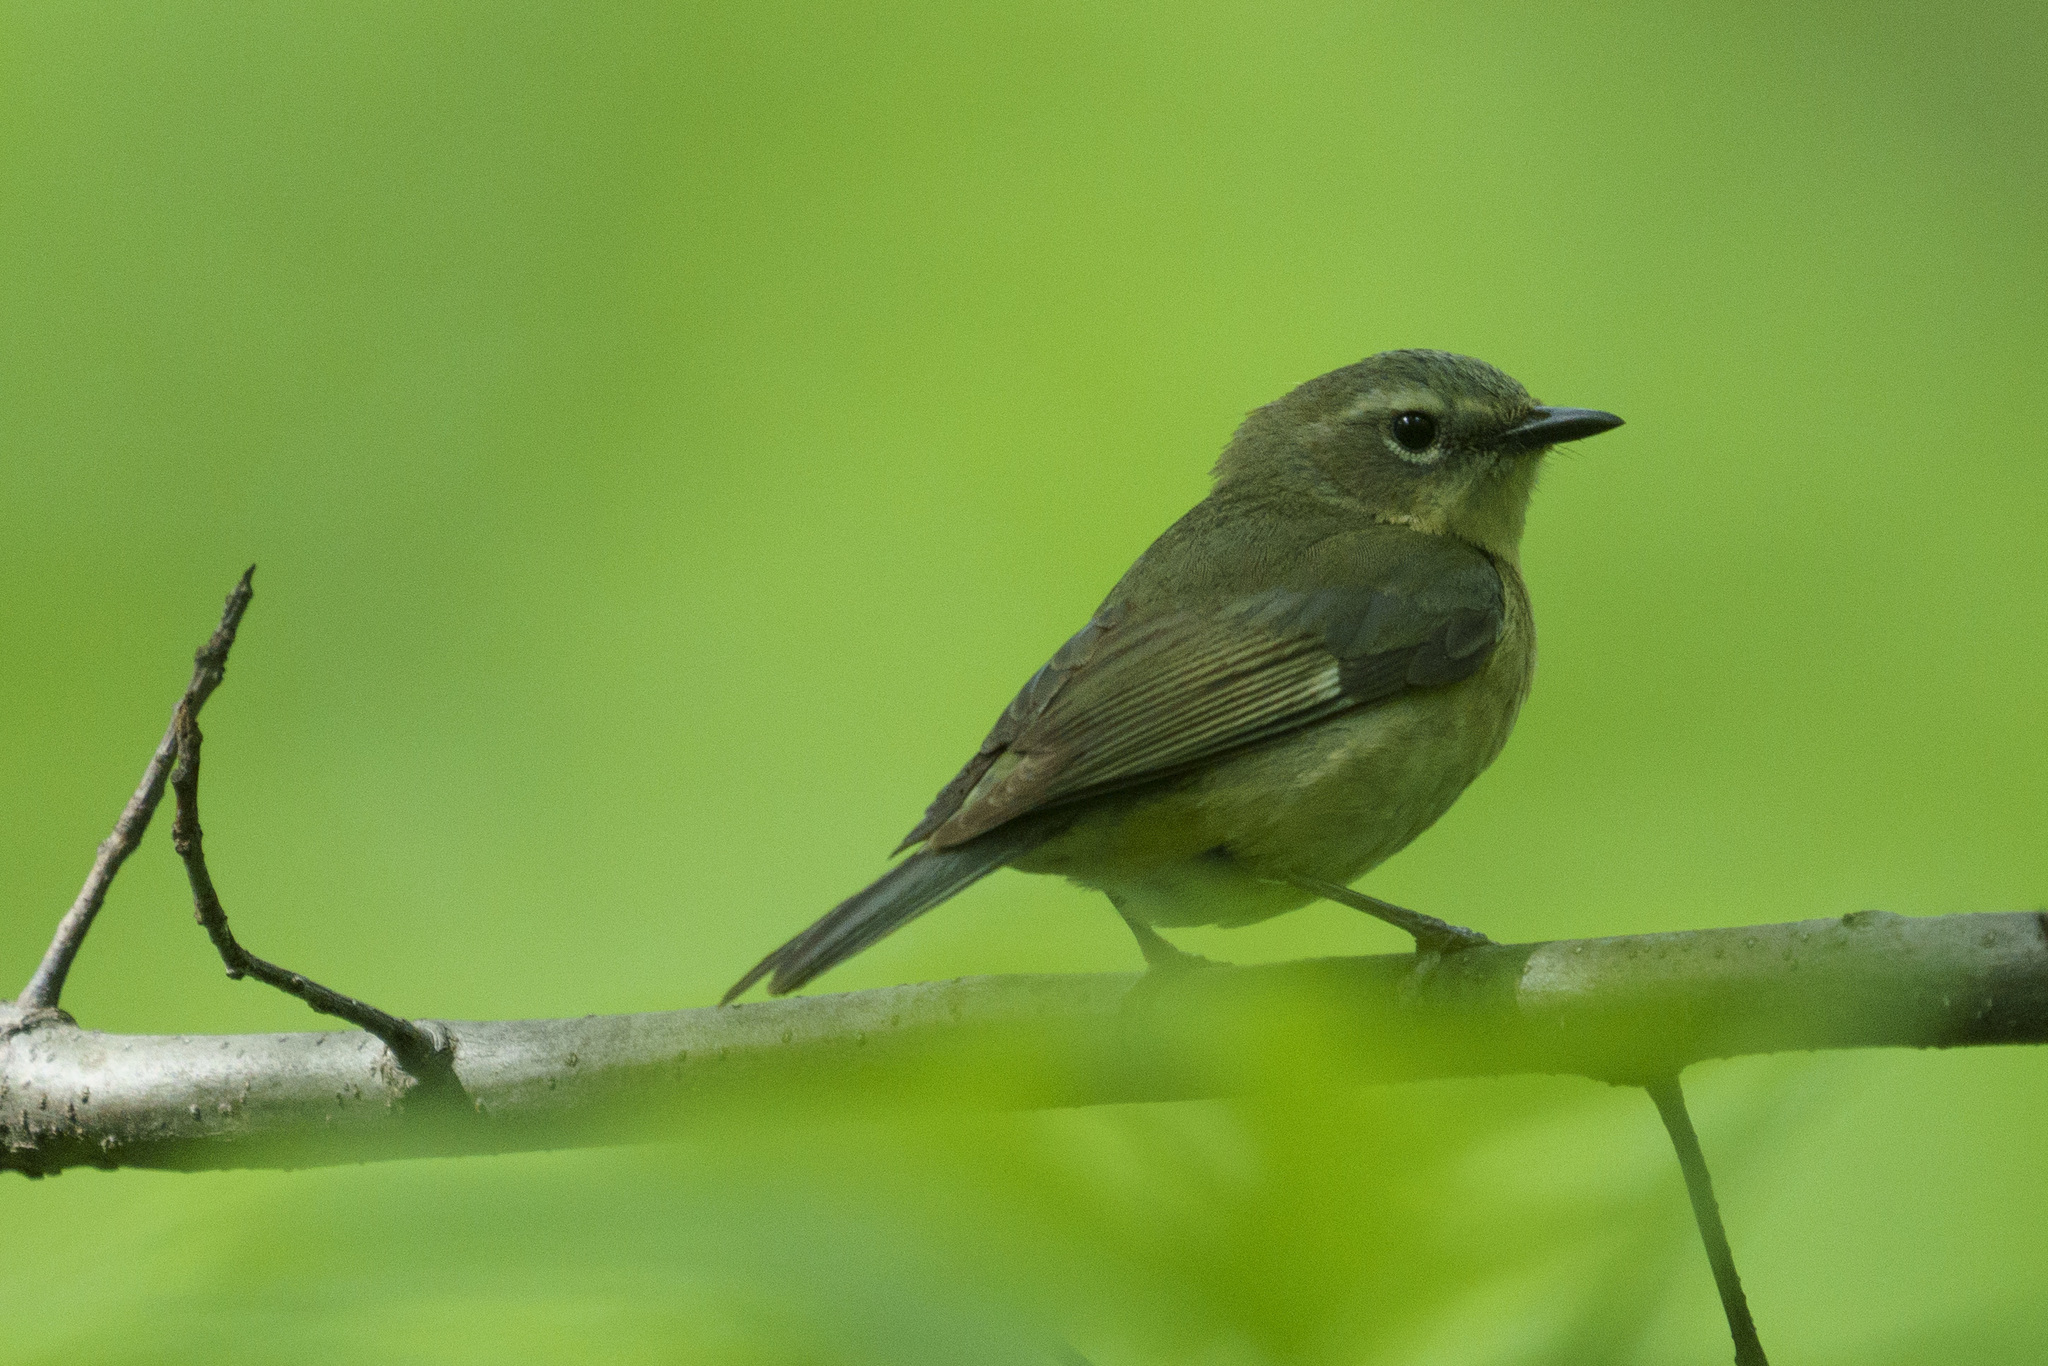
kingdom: Animalia
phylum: Chordata
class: Aves
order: Passeriformes
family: Parulidae
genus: Setophaga
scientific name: Setophaga caerulescens
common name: Black-throated blue warbler
